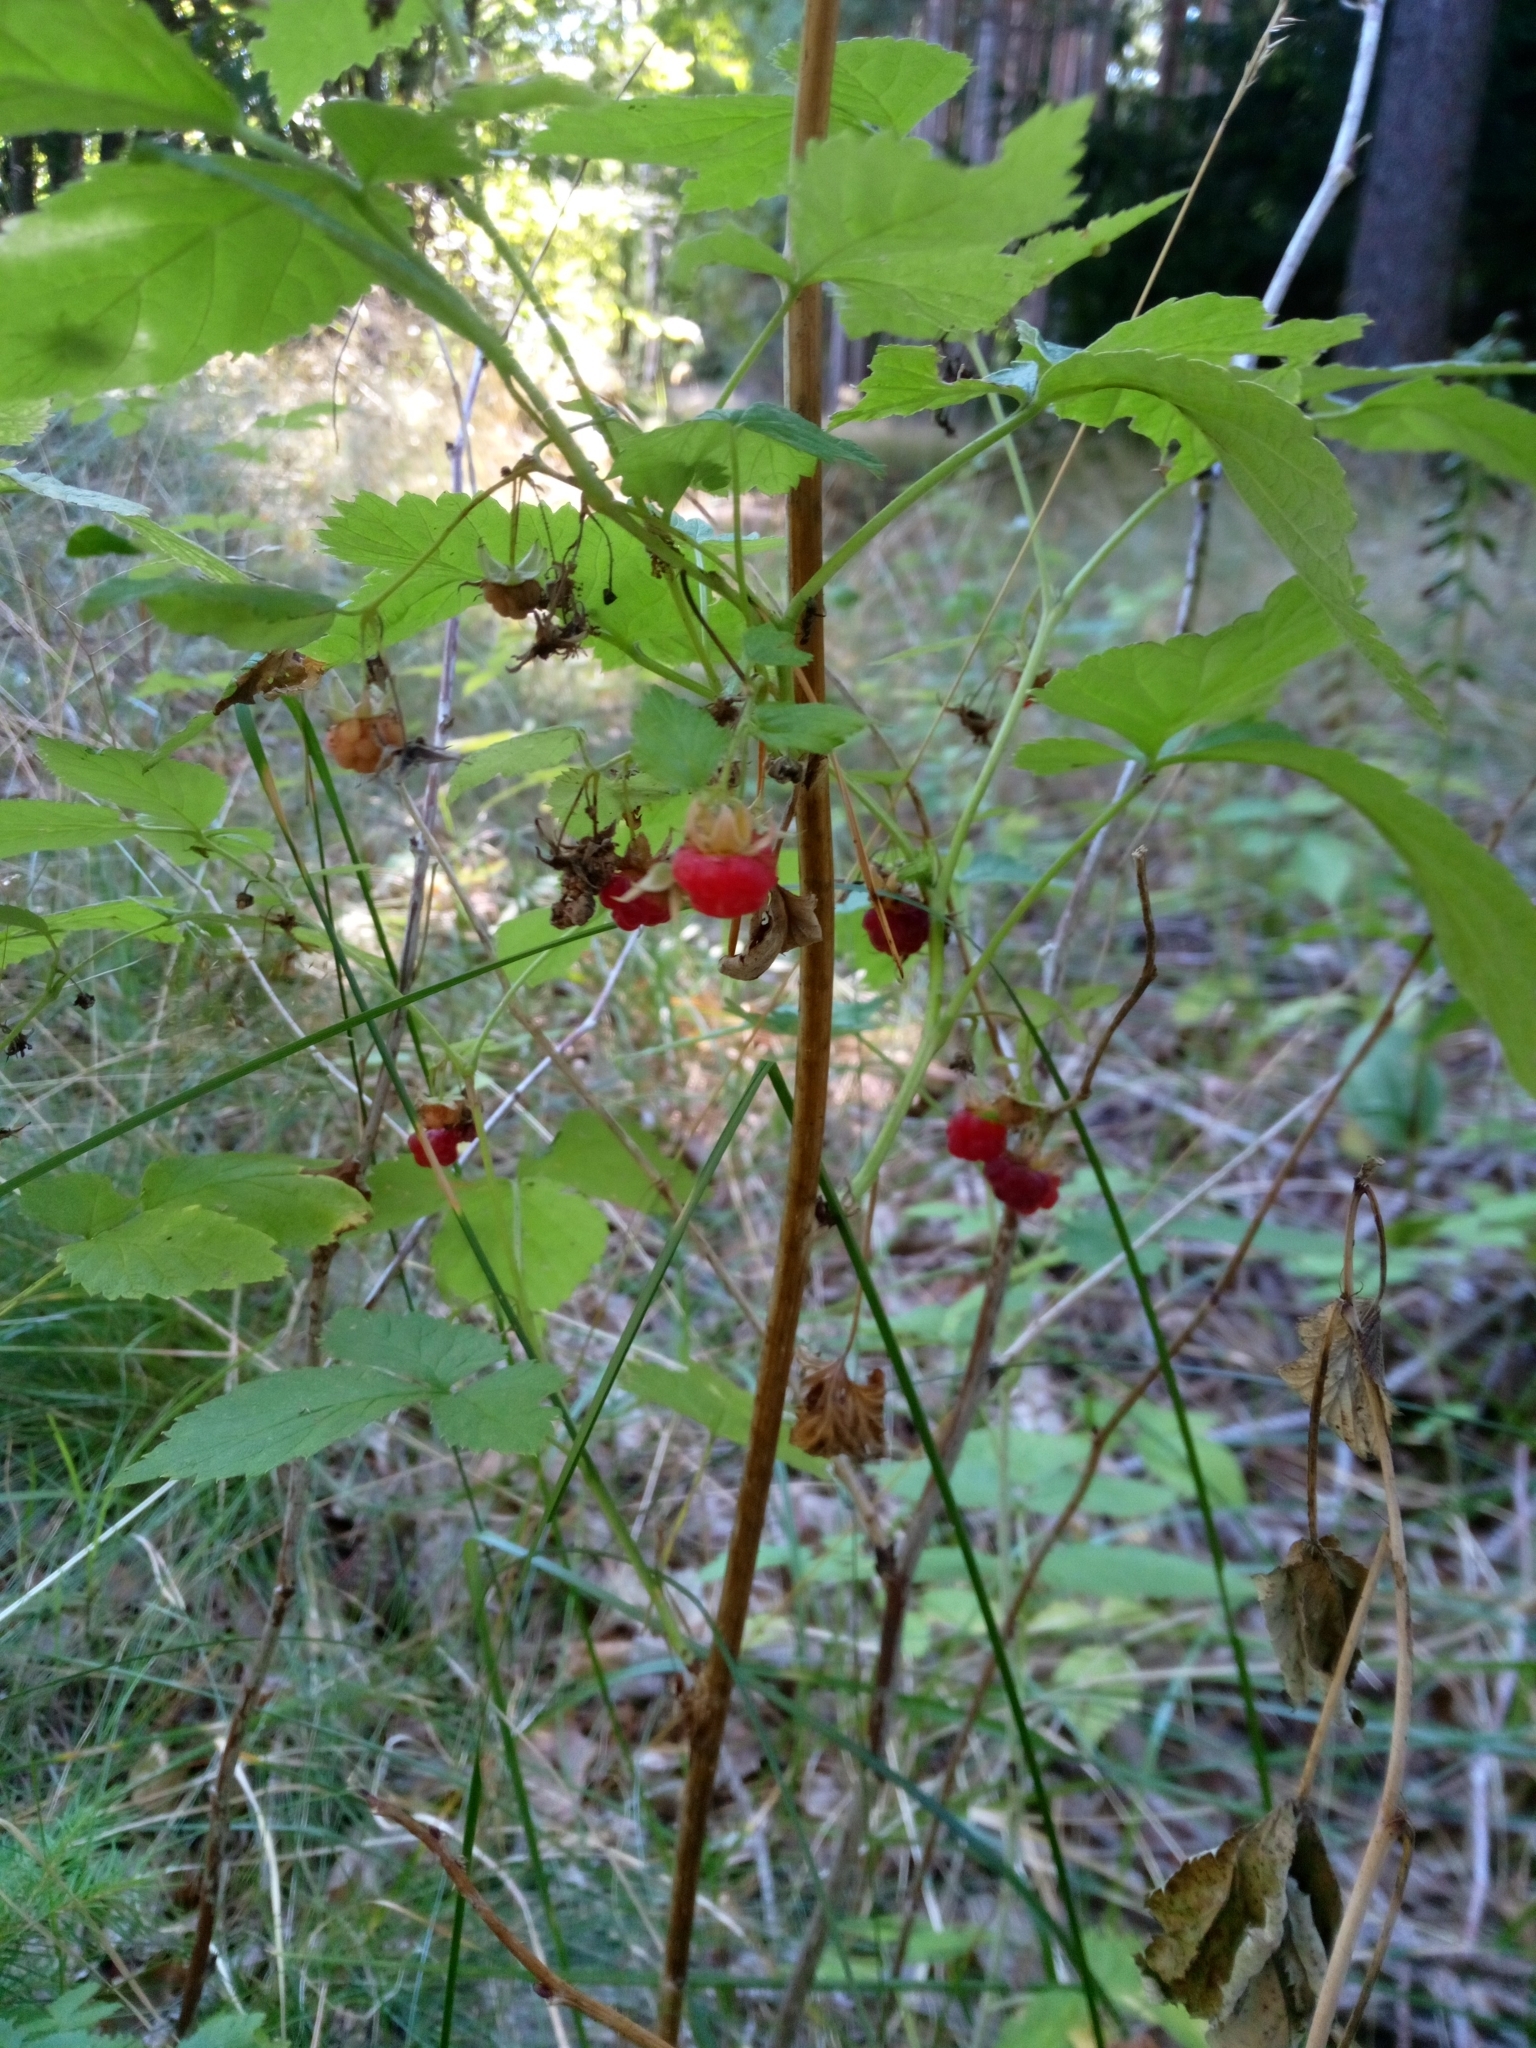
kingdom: Plantae
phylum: Tracheophyta
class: Magnoliopsida
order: Rosales
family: Rosaceae
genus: Rubus
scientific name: Rubus idaeus
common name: Raspberry
